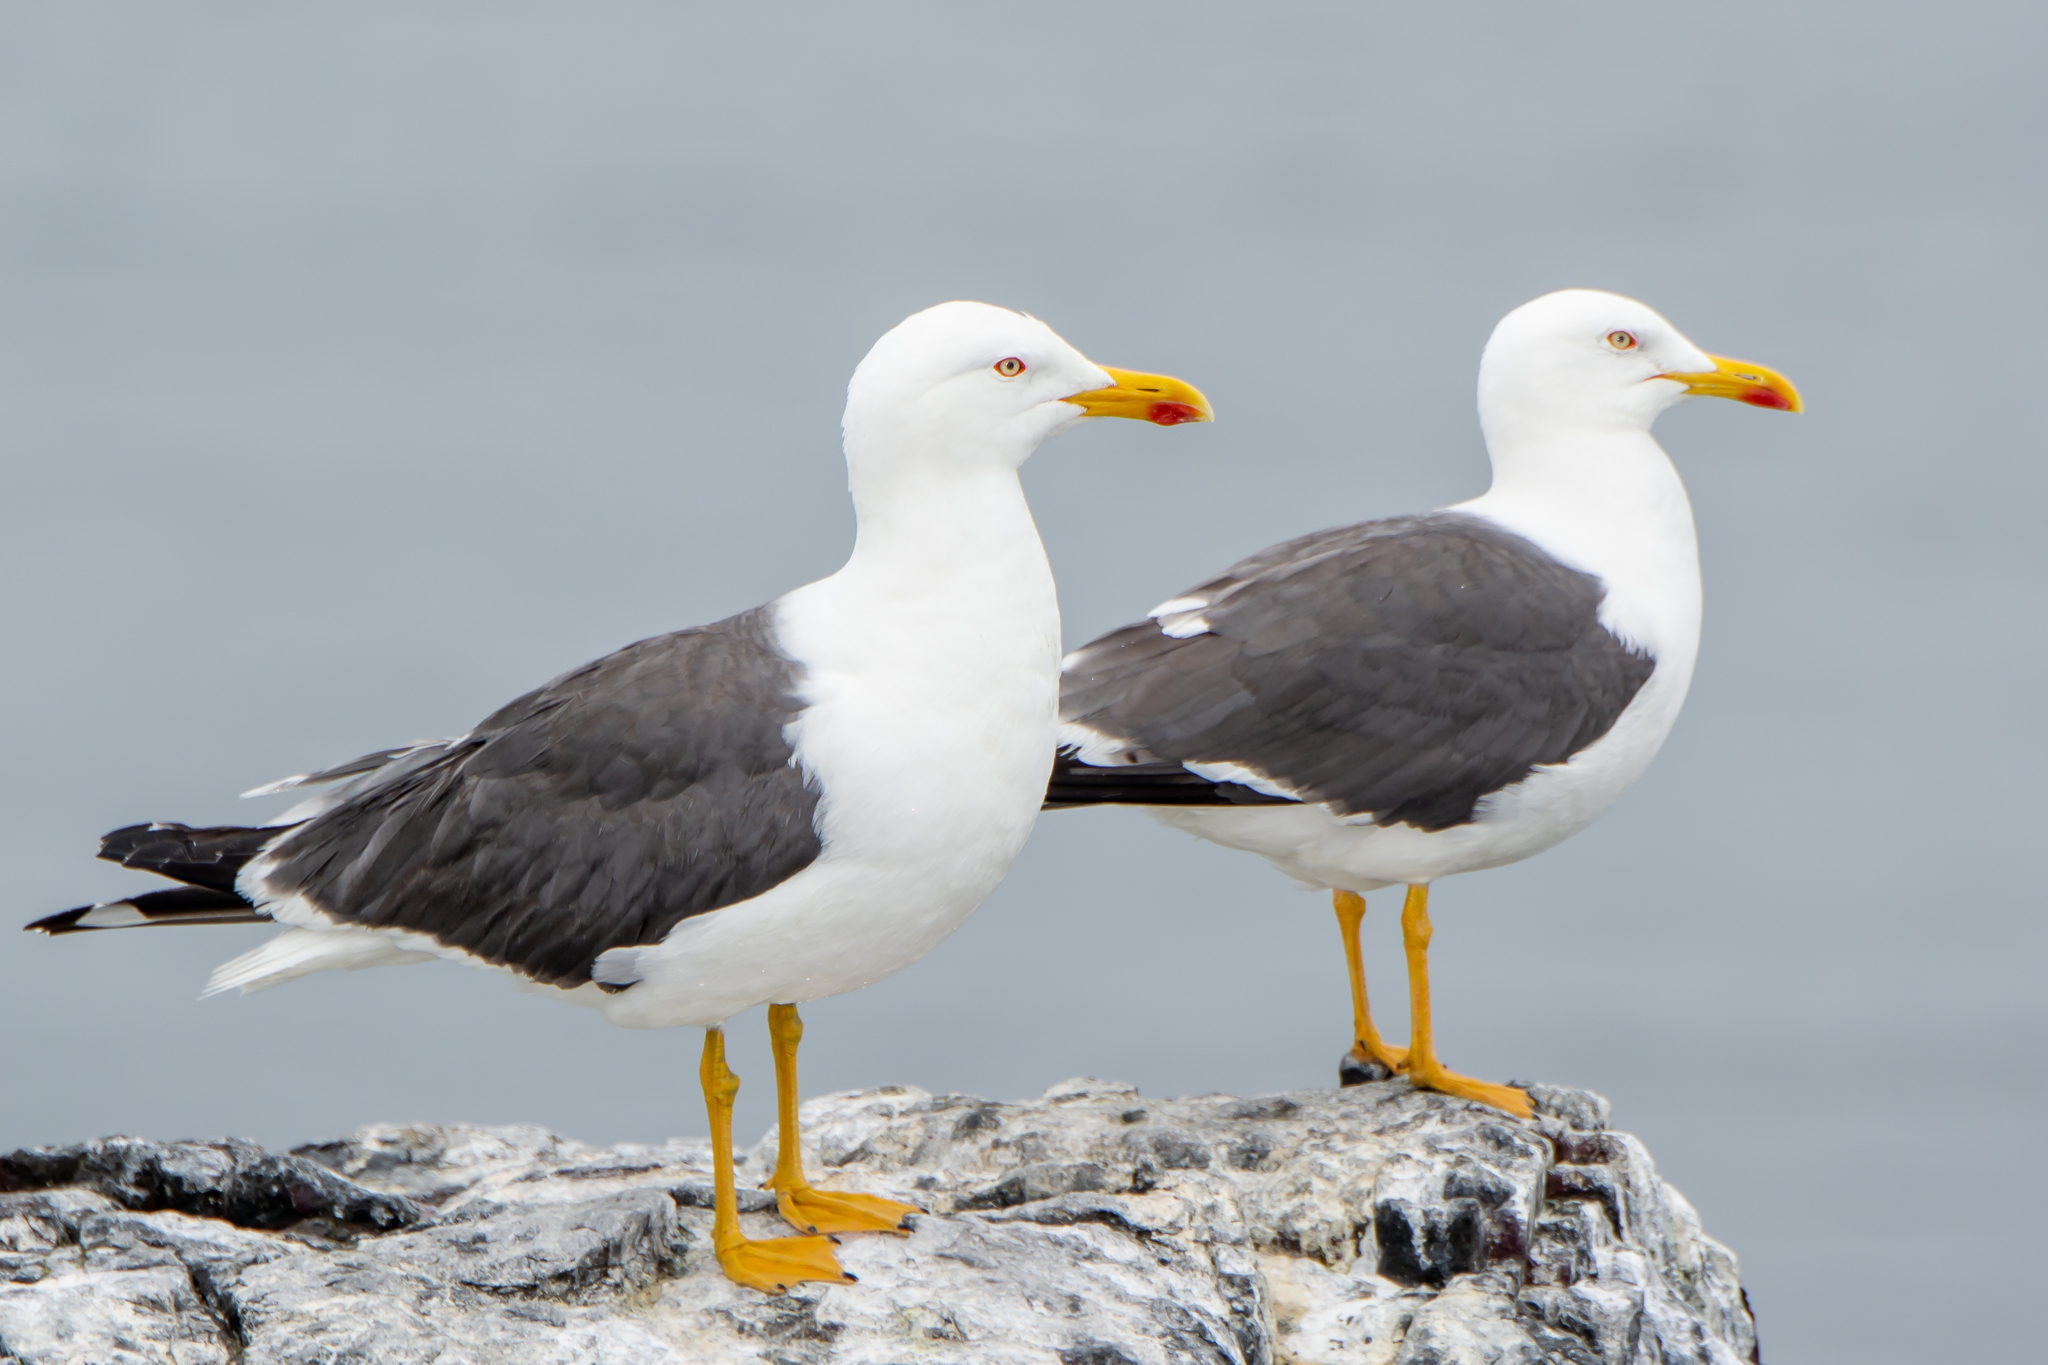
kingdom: Animalia
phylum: Chordata
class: Aves
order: Charadriiformes
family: Laridae
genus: Larus
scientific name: Larus fuscus
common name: Lesser black-backed gull
